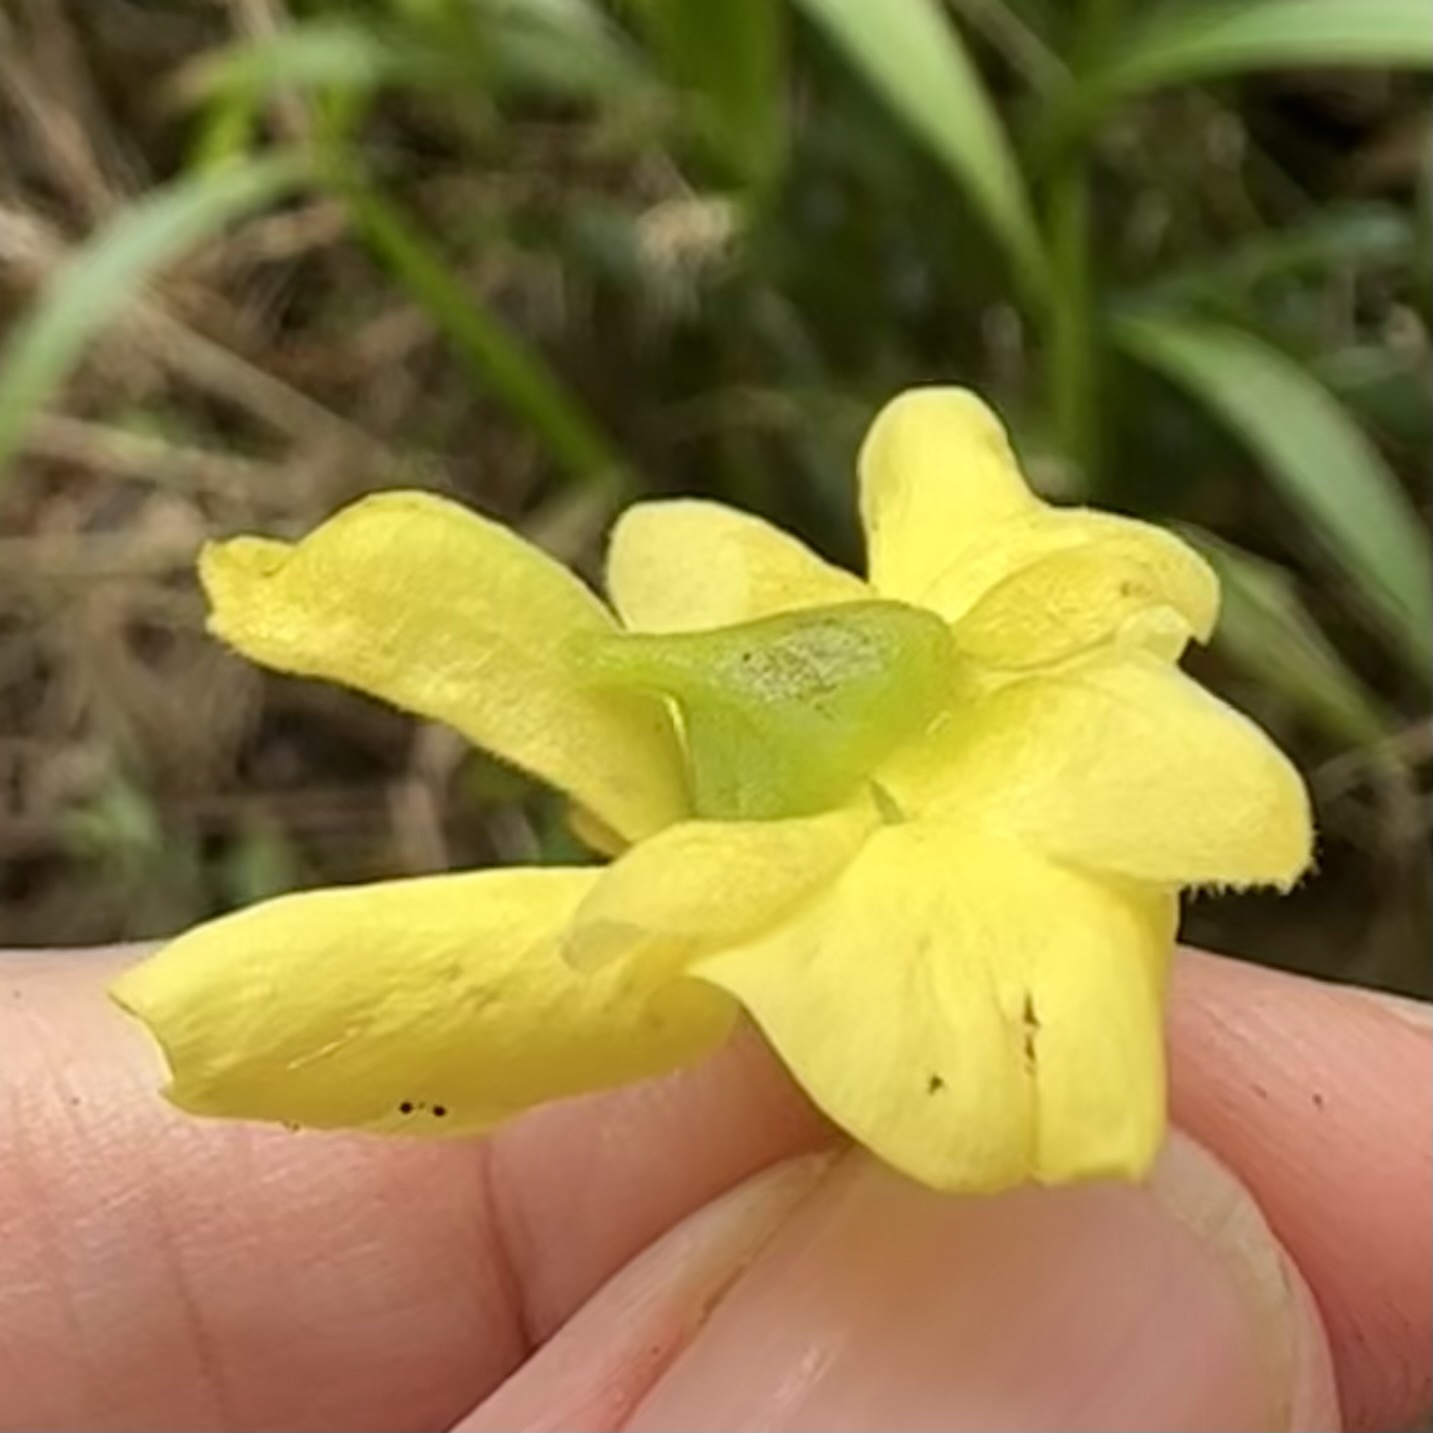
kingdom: Plantae
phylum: Tracheophyta
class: Magnoliopsida
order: Fabales
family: Fabaceae
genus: Biancaea
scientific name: Biancaea decapetala
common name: Cat's claw
